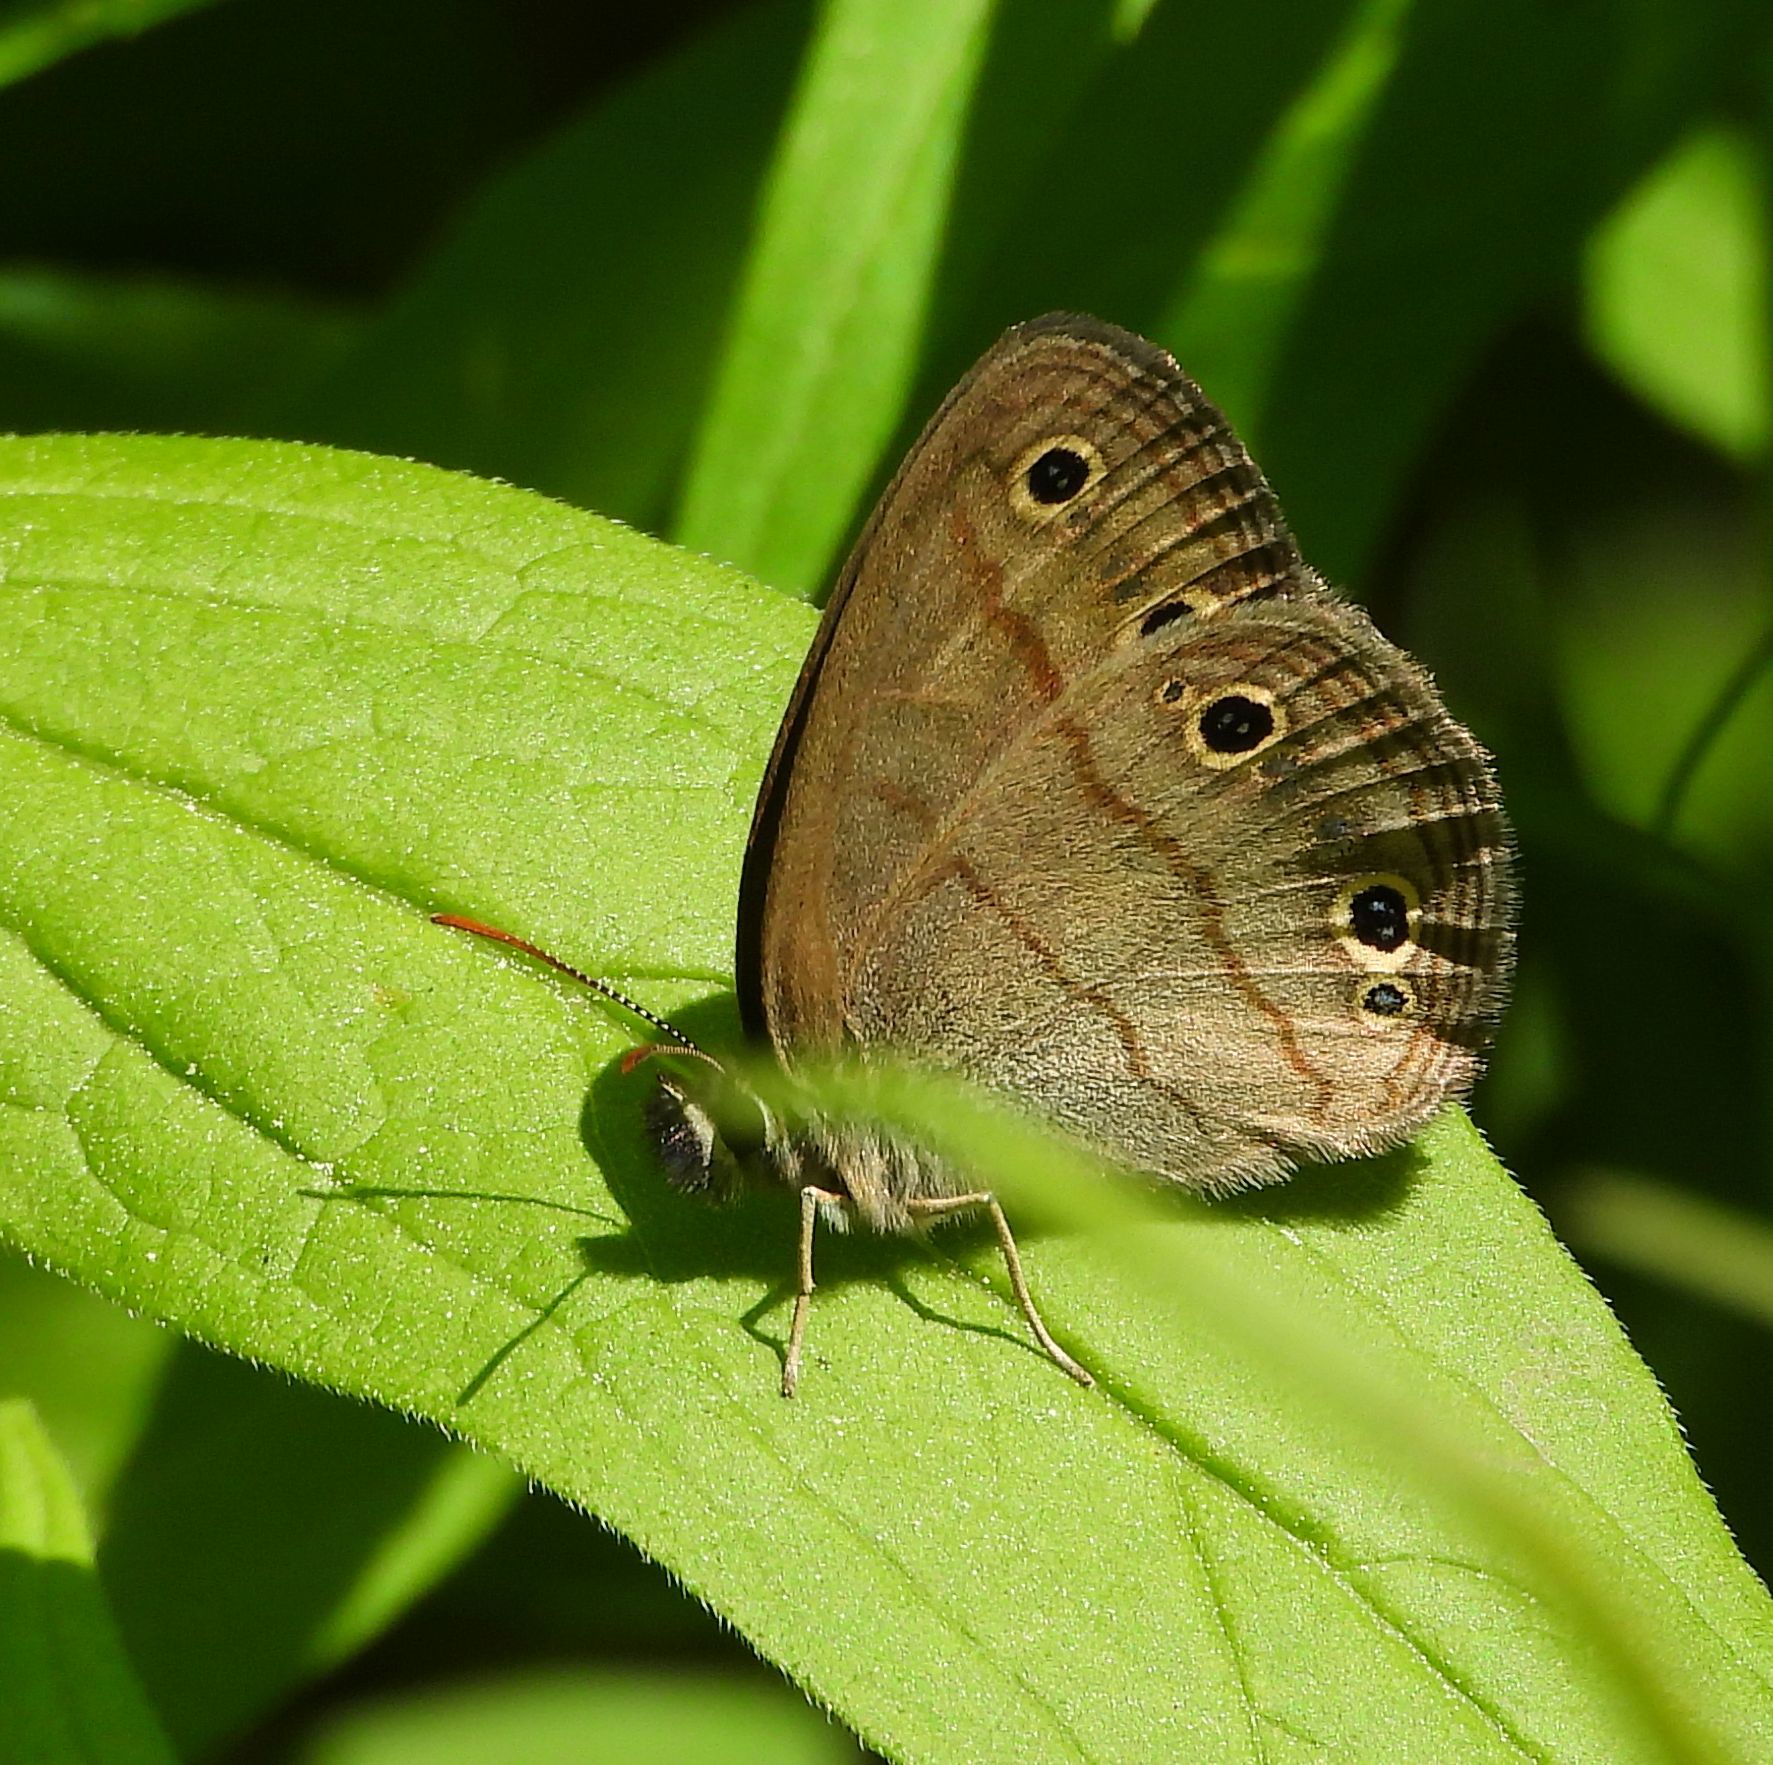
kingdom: Animalia
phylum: Arthropoda
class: Insecta
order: Lepidoptera
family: Nymphalidae
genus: Euptychia
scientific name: Euptychia cymela
